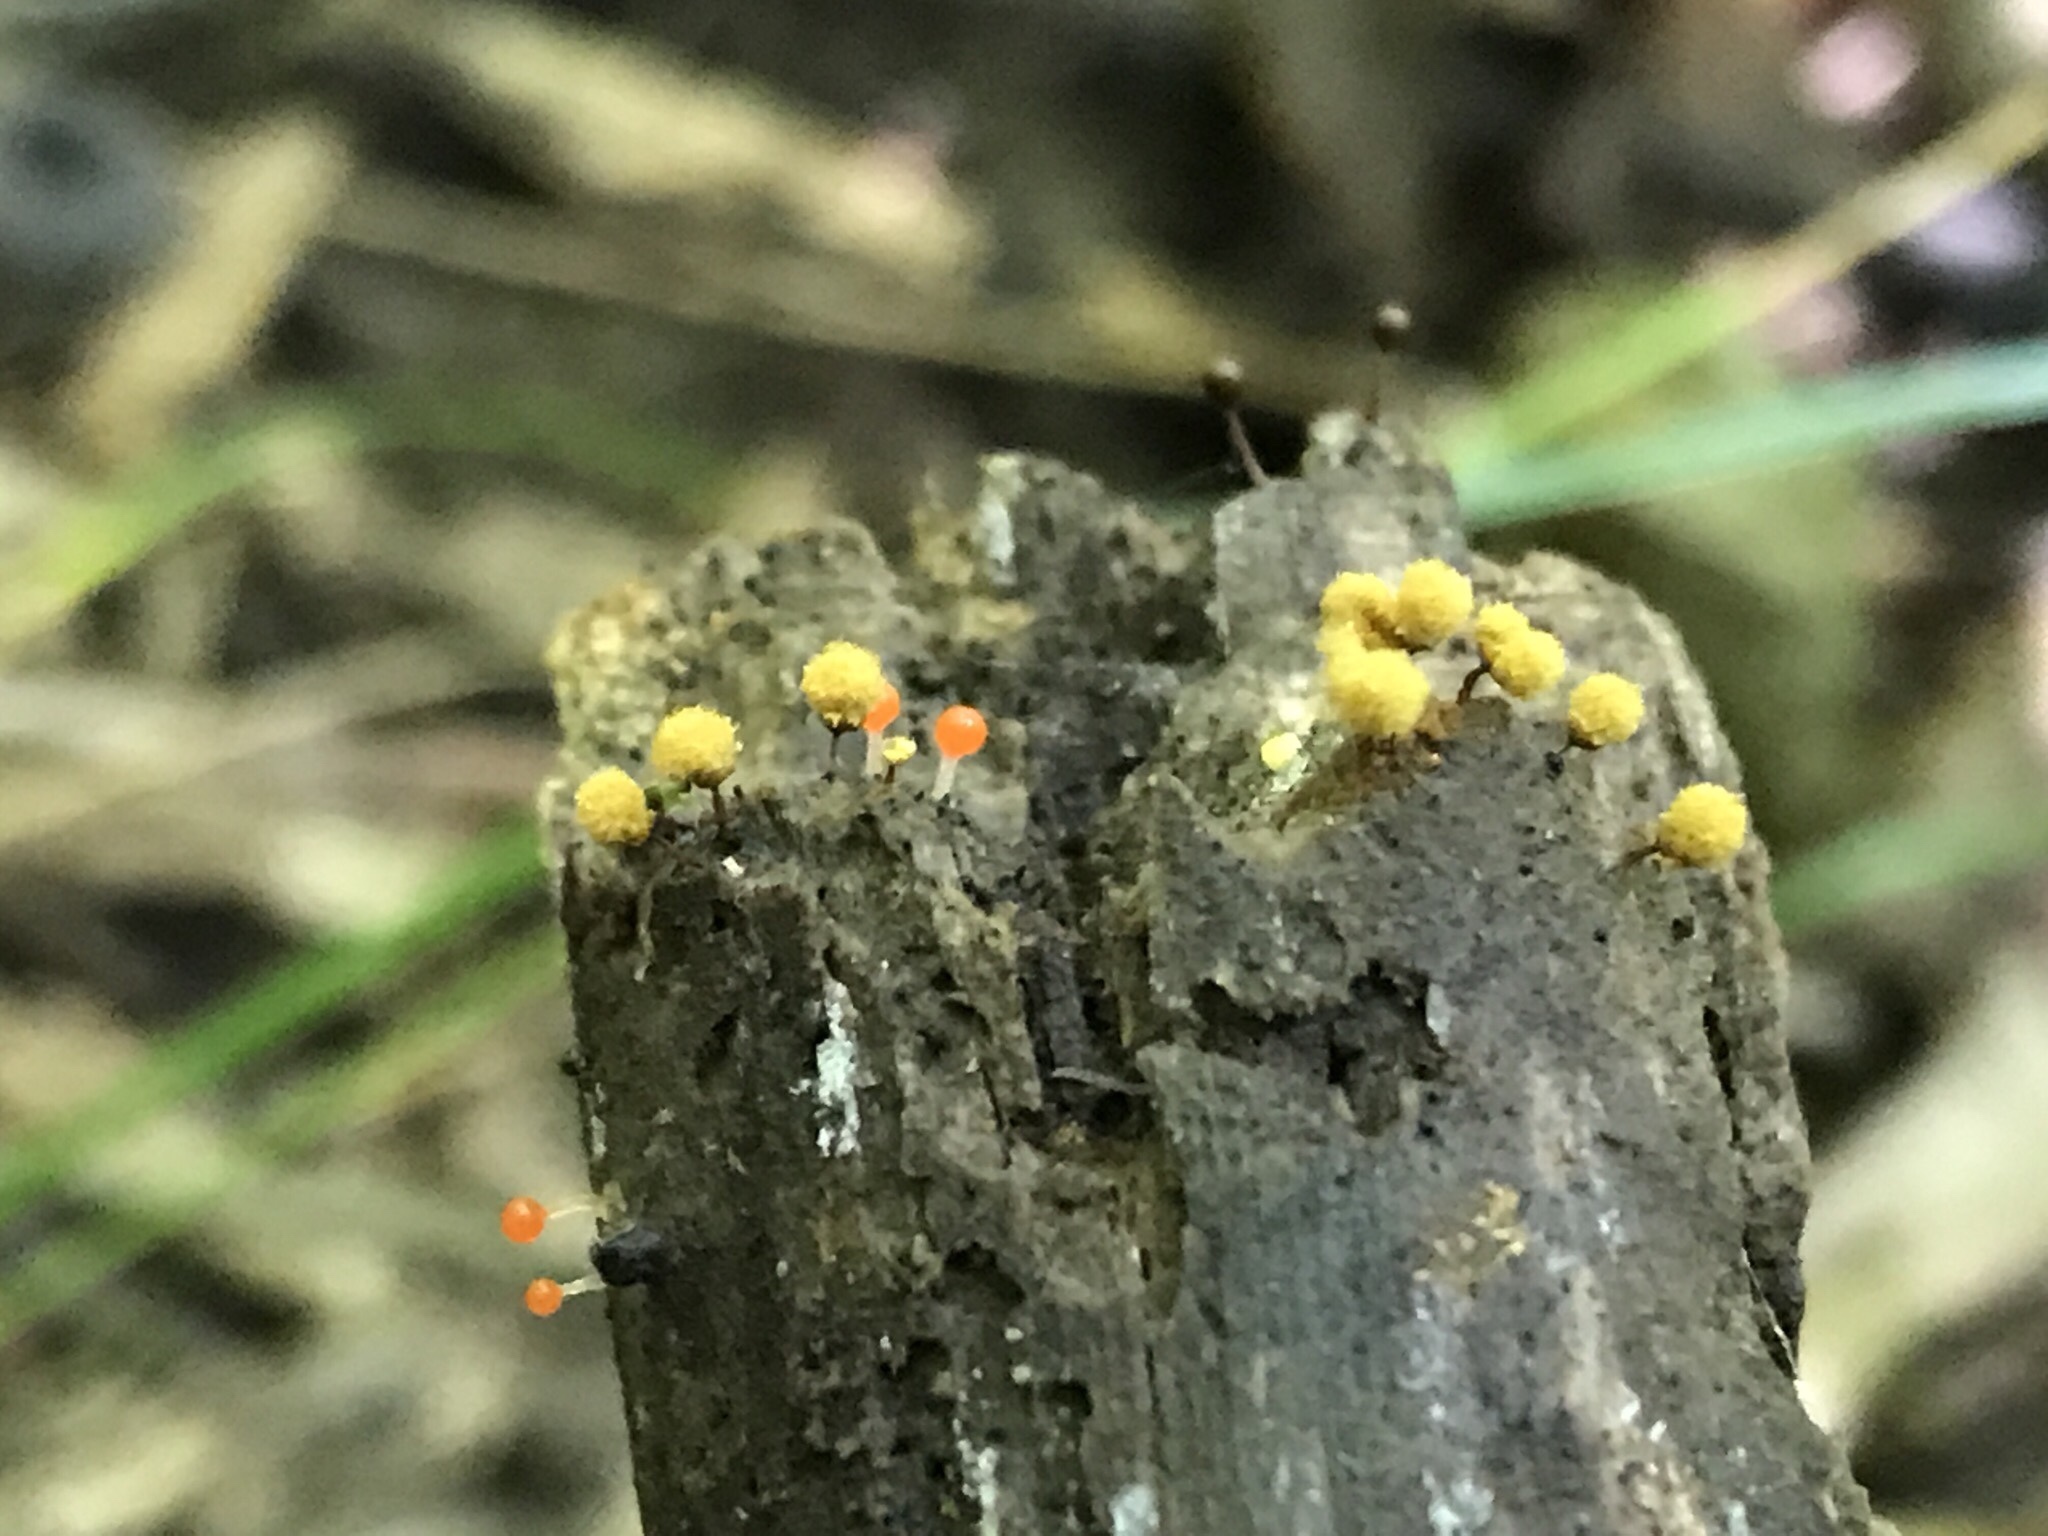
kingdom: Protozoa
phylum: Mycetozoa
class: Myxomycetes
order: Trichiales
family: Arcyriaceae
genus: Hemitrichia
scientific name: Hemitrichia calyculata
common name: Push pin slime mold
